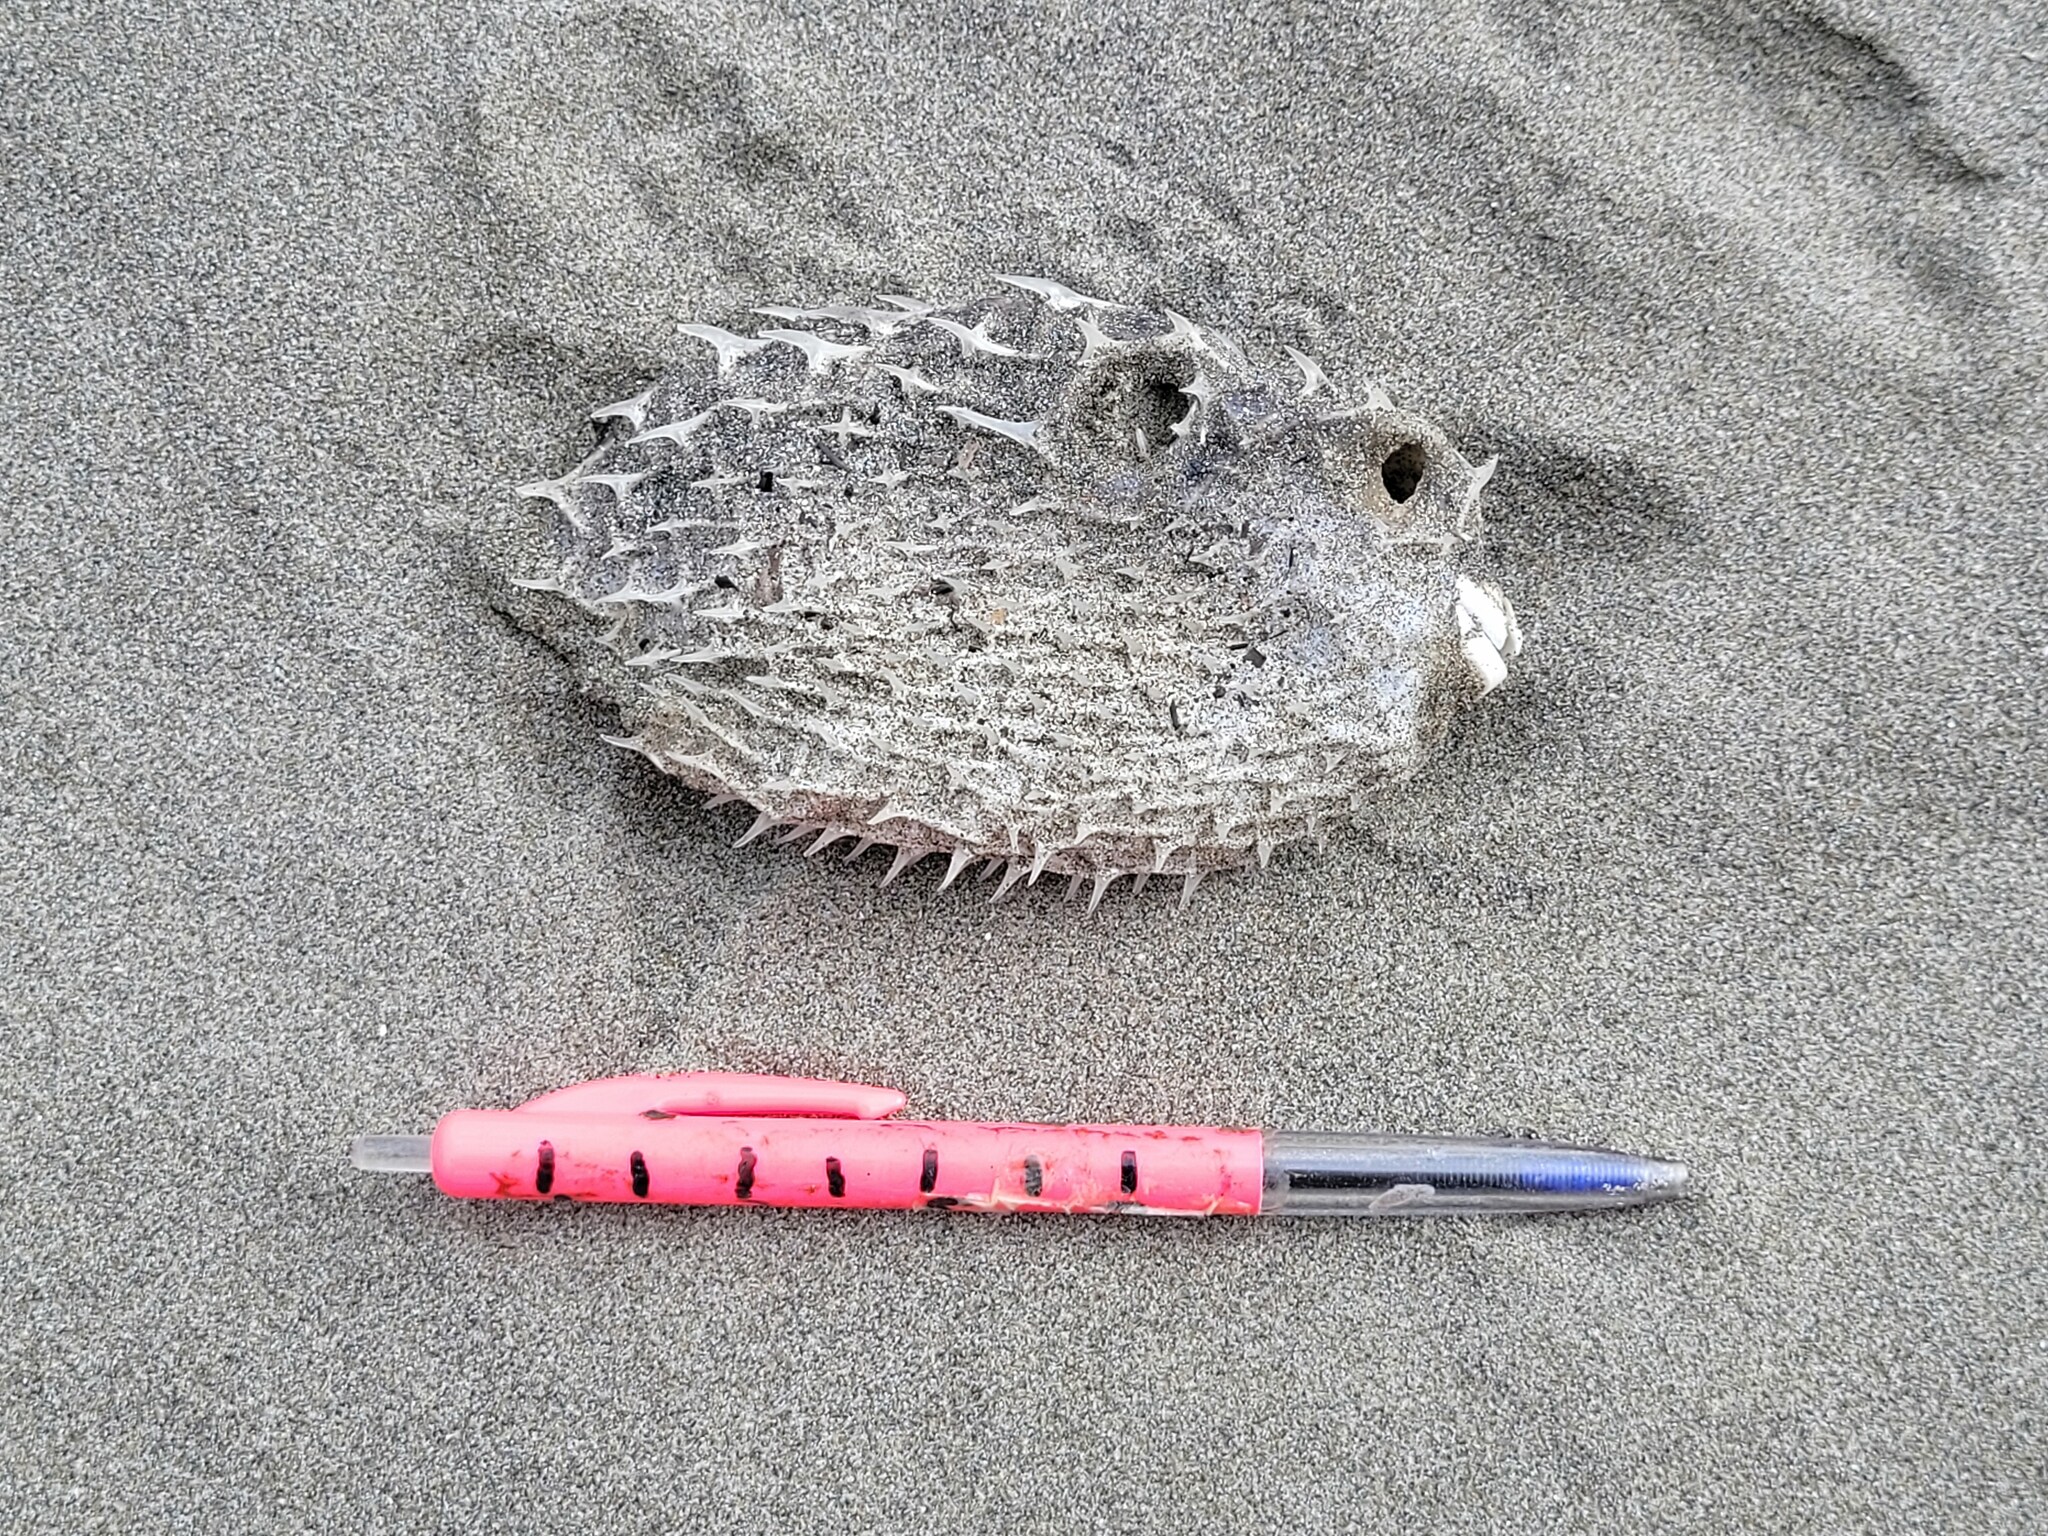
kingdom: Animalia
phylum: Chordata
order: Tetraodontiformes
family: Diodontidae
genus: Allomycterus
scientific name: Allomycterus pilatus
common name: No common name
